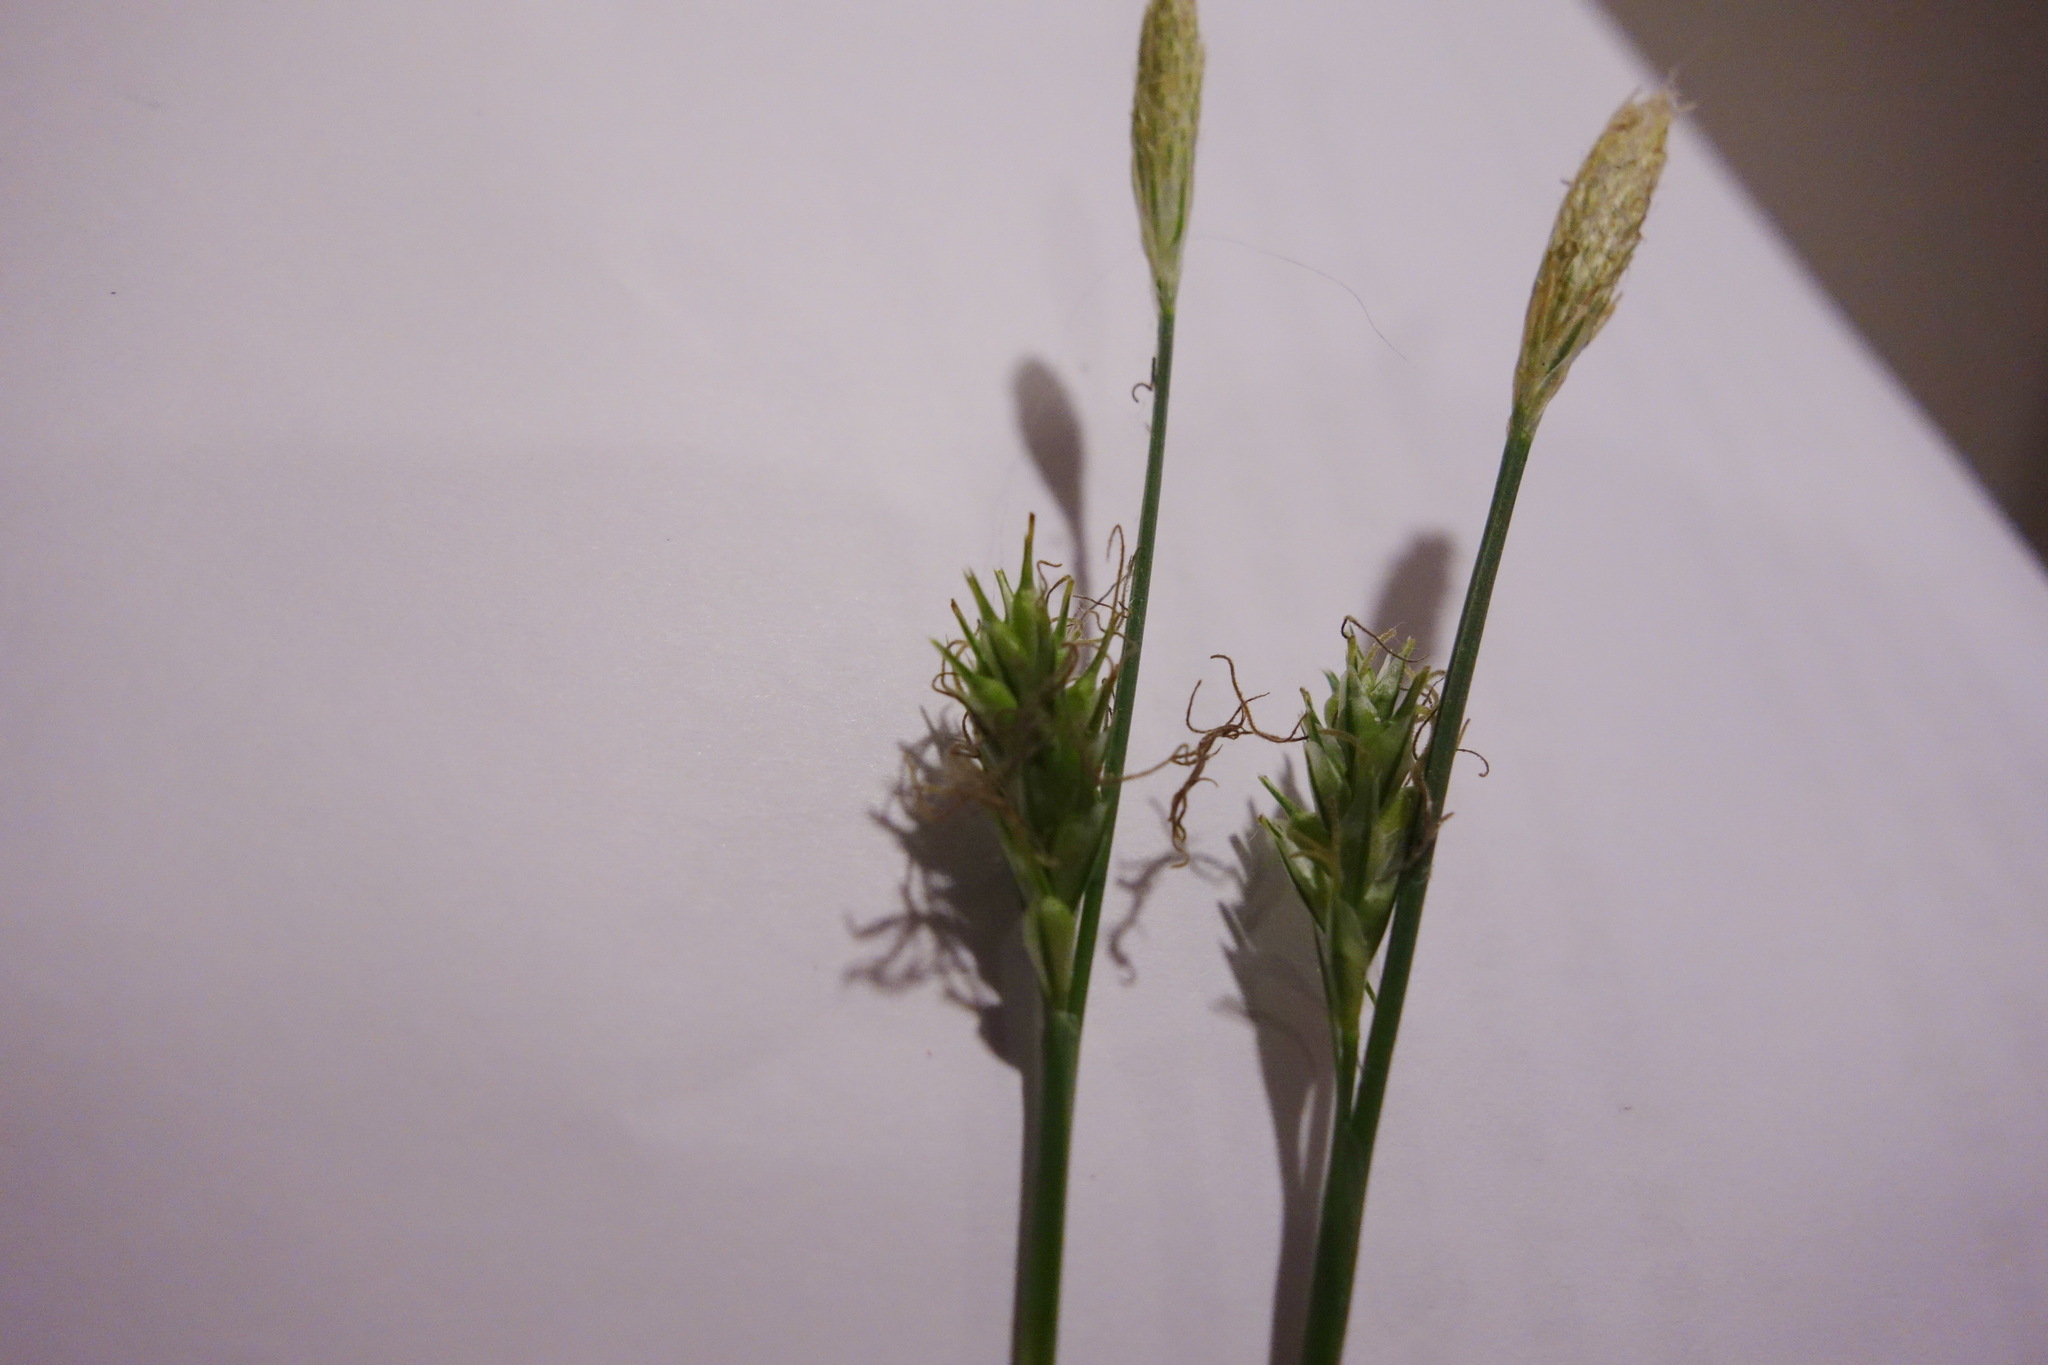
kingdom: Plantae
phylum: Tracheophyta
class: Liliopsida
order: Poales
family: Cyperaceae
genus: Carex
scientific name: Carex michelii
